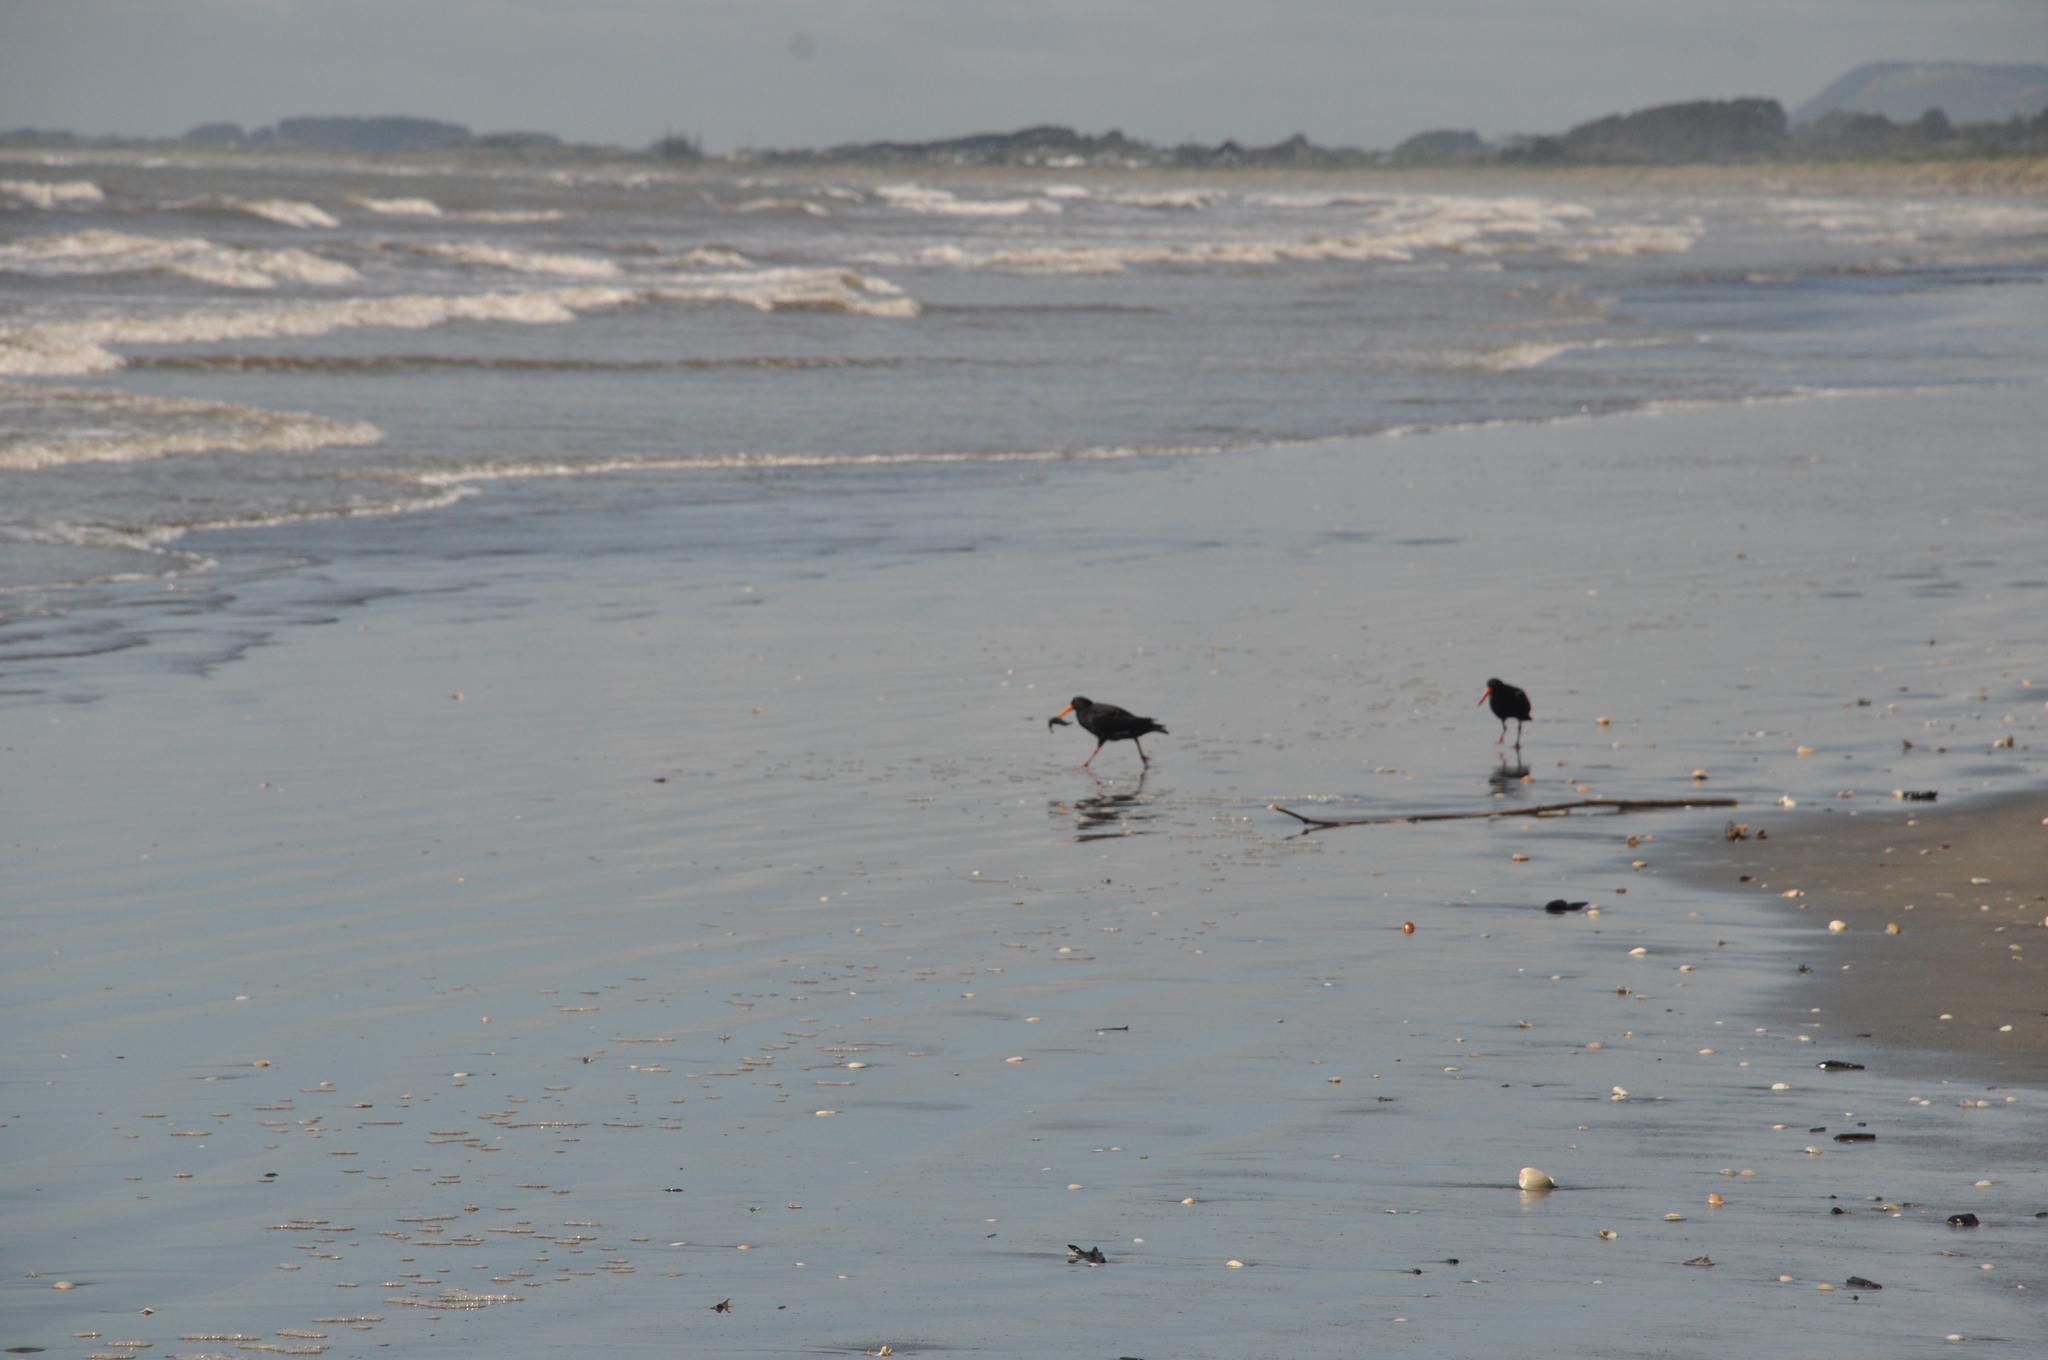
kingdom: Animalia
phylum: Chordata
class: Aves
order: Charadriiformes
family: Haematopodidae
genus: Haematopus
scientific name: Haematopus unicolor
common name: Variable oystercatcher
